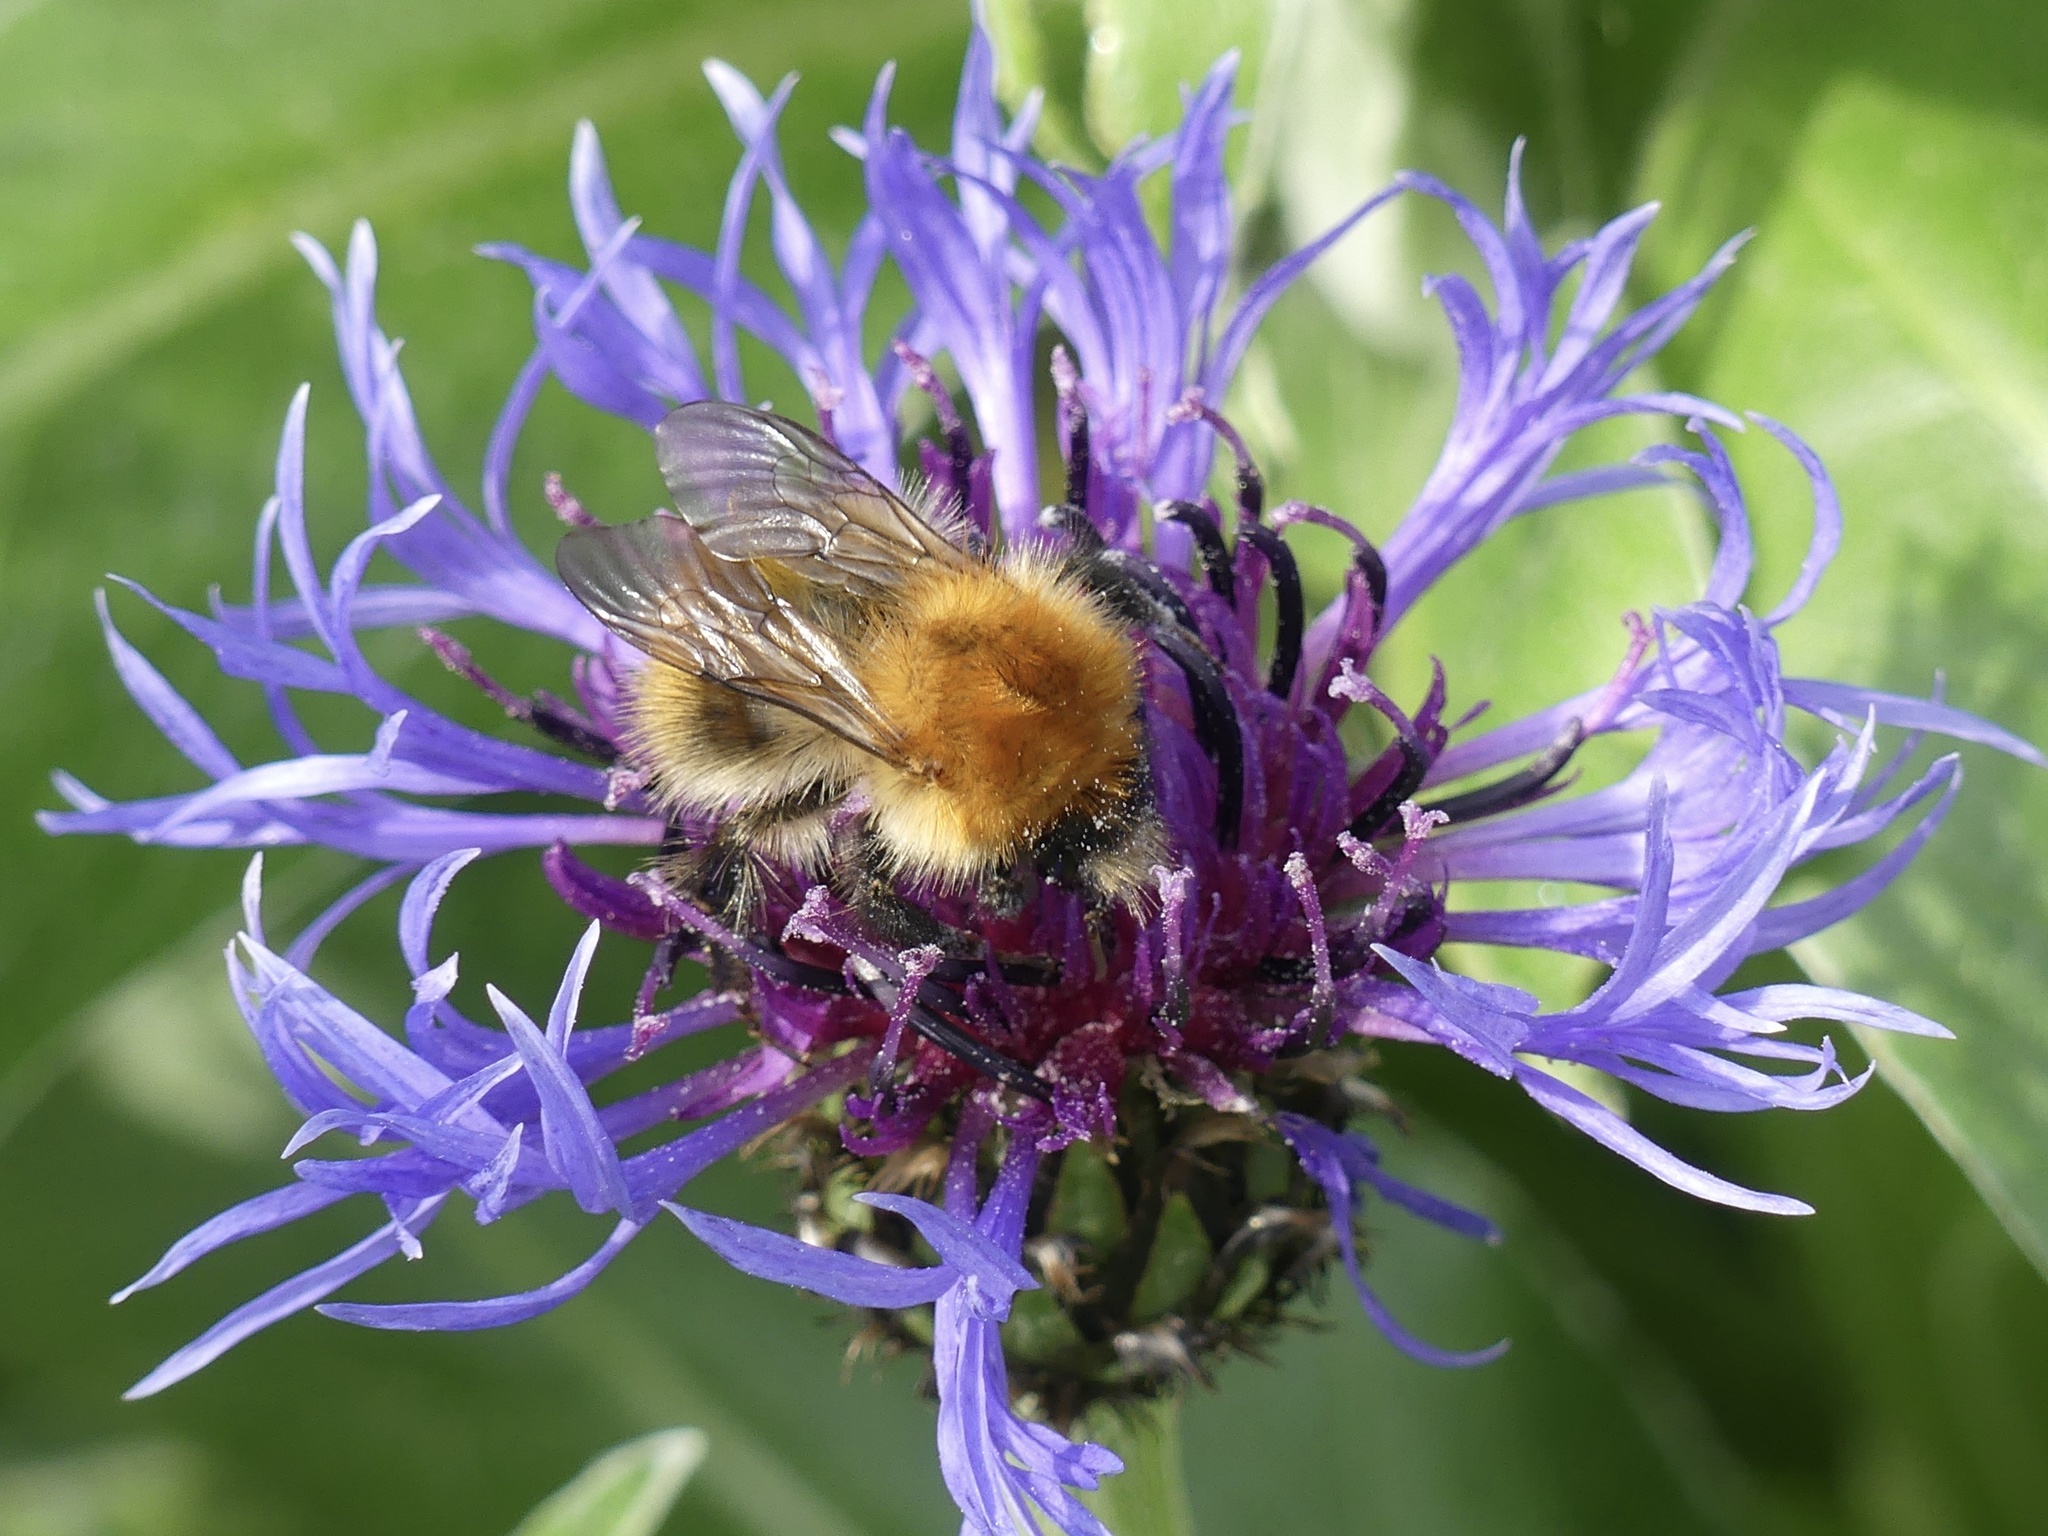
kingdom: Animalia
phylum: Arthropoda
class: Insecta
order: Hymenoptera
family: Apidae
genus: Bombus
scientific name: Bombus pascuorum
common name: Common carder bee
